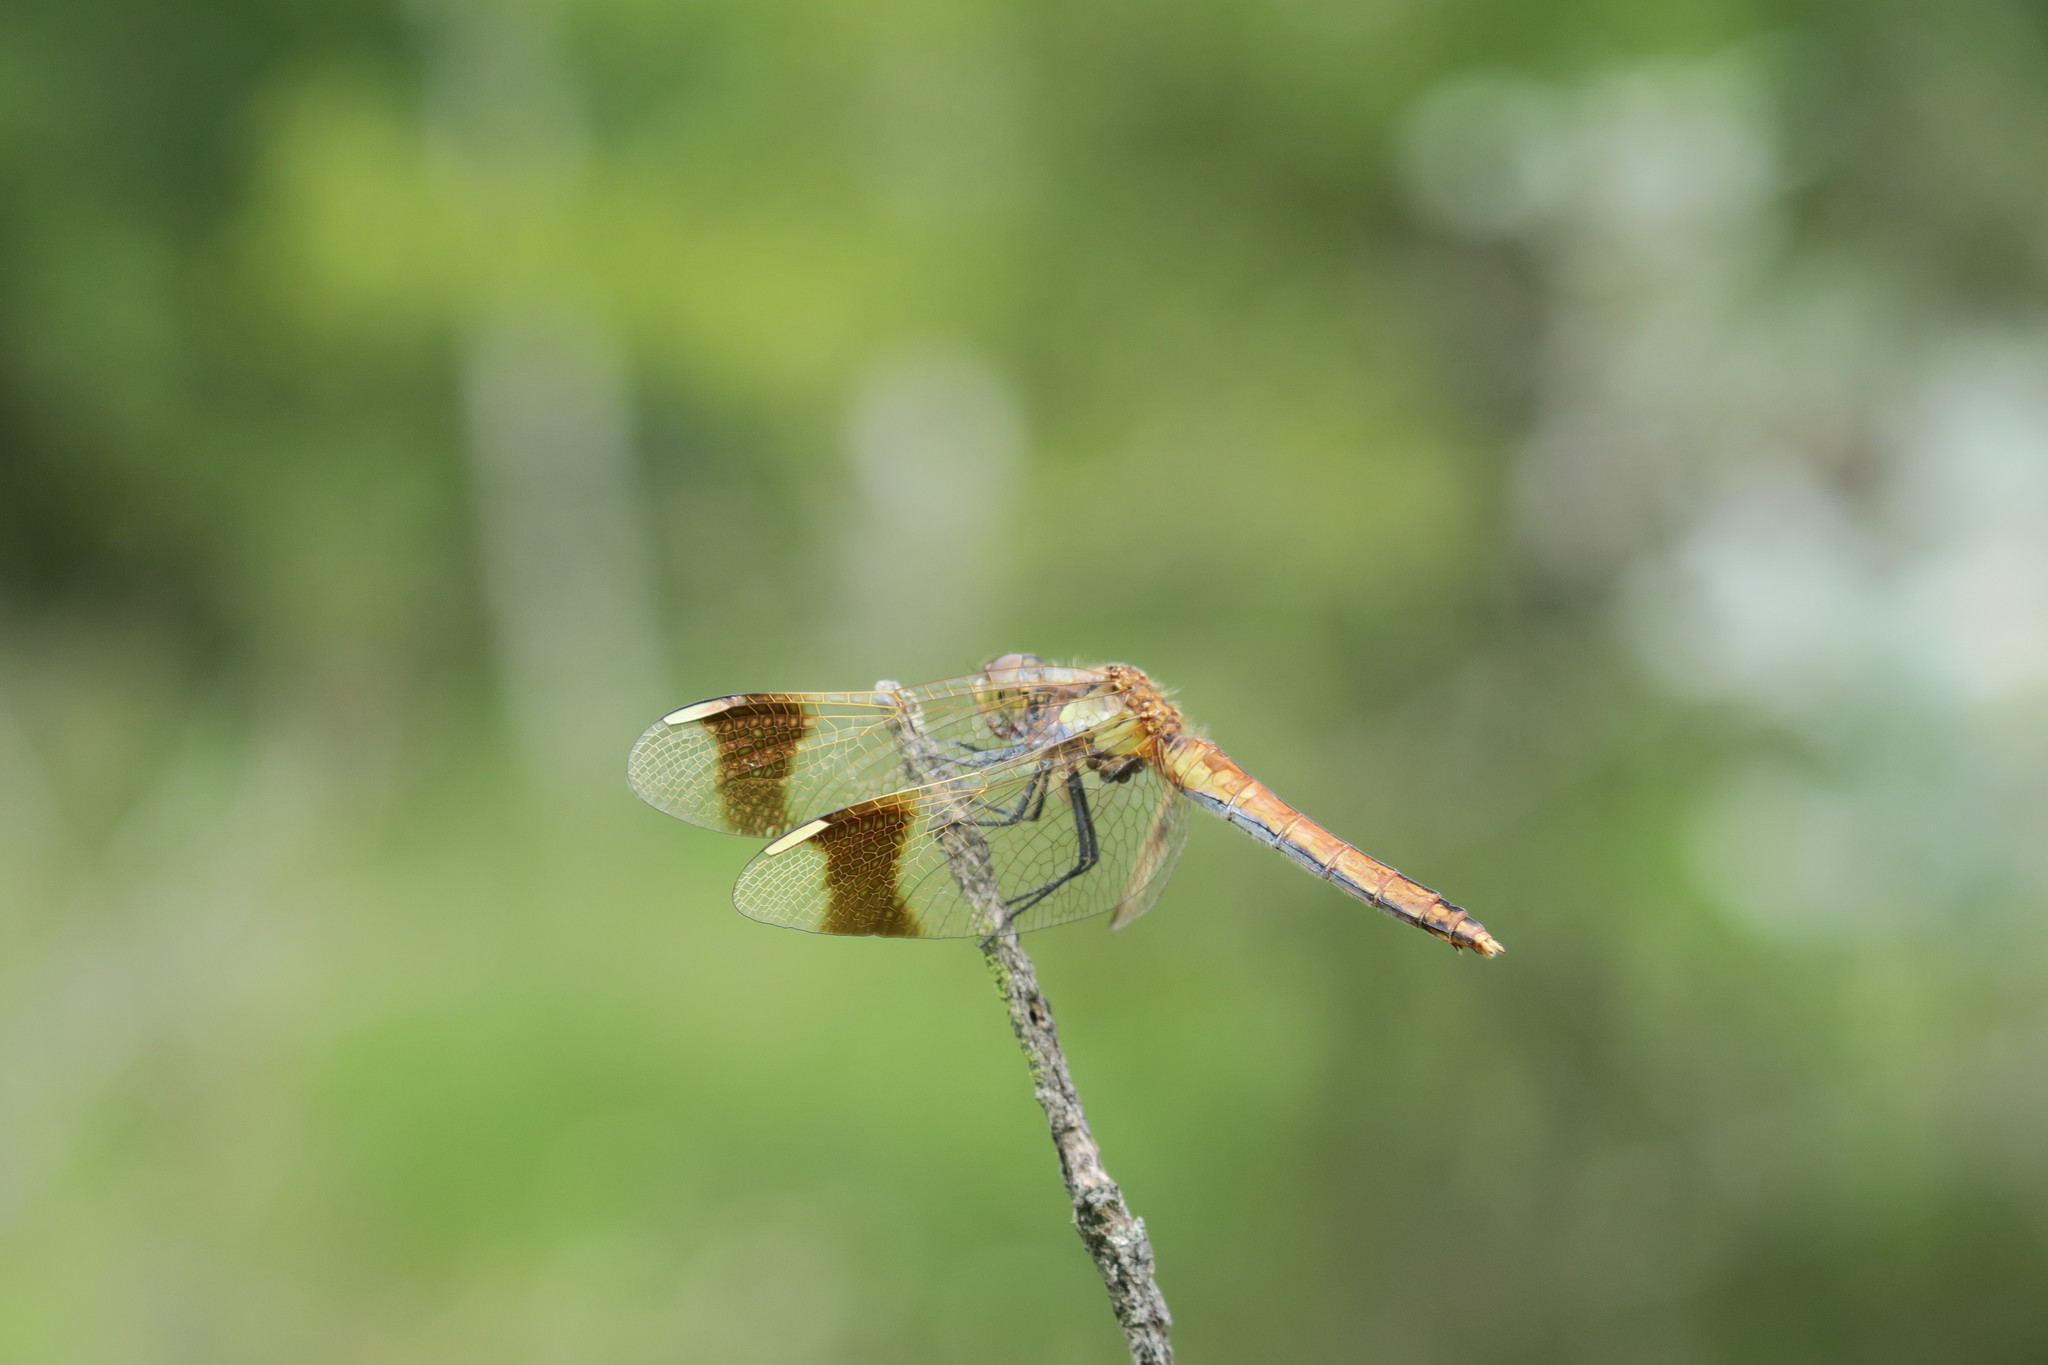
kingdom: Animalia
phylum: Arthropoda
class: Insecta
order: Odonata
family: Libellulidae
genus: Sympetrum
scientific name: Sympetrum pedemontanum
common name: Banded darter
